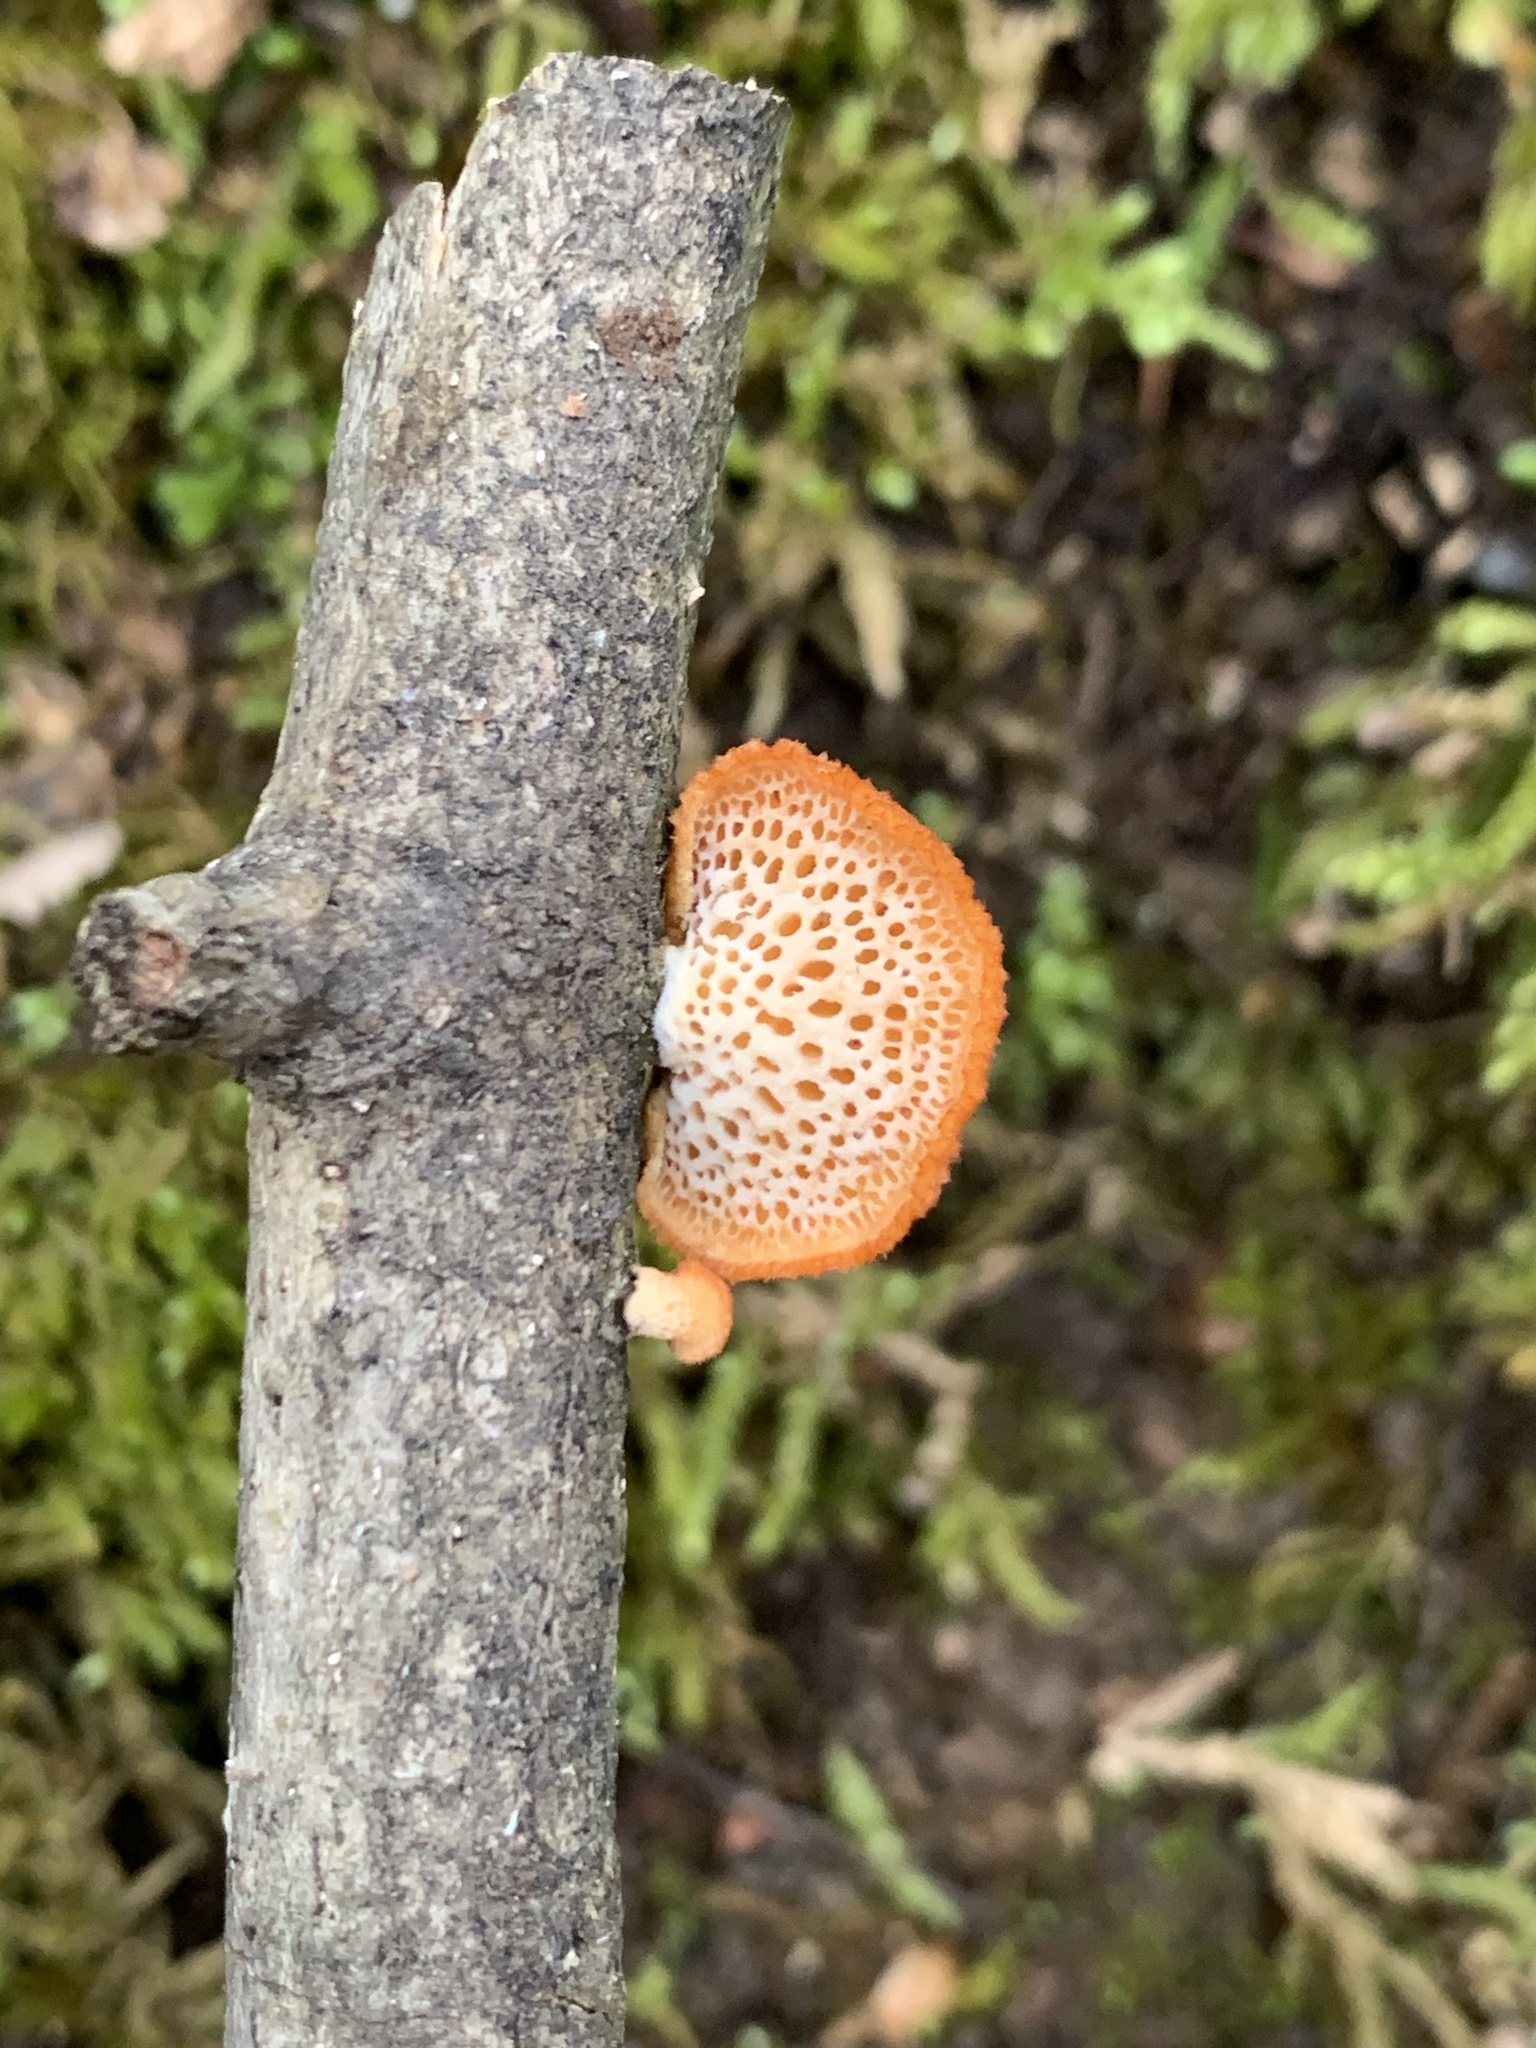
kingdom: Fungi
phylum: Basidiomycota
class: Agaricomycetes
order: Polyporales
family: Polyporaceae
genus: Neofavolus
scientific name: Neofavolus alveolaris
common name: Hexagonal-pored polypore
